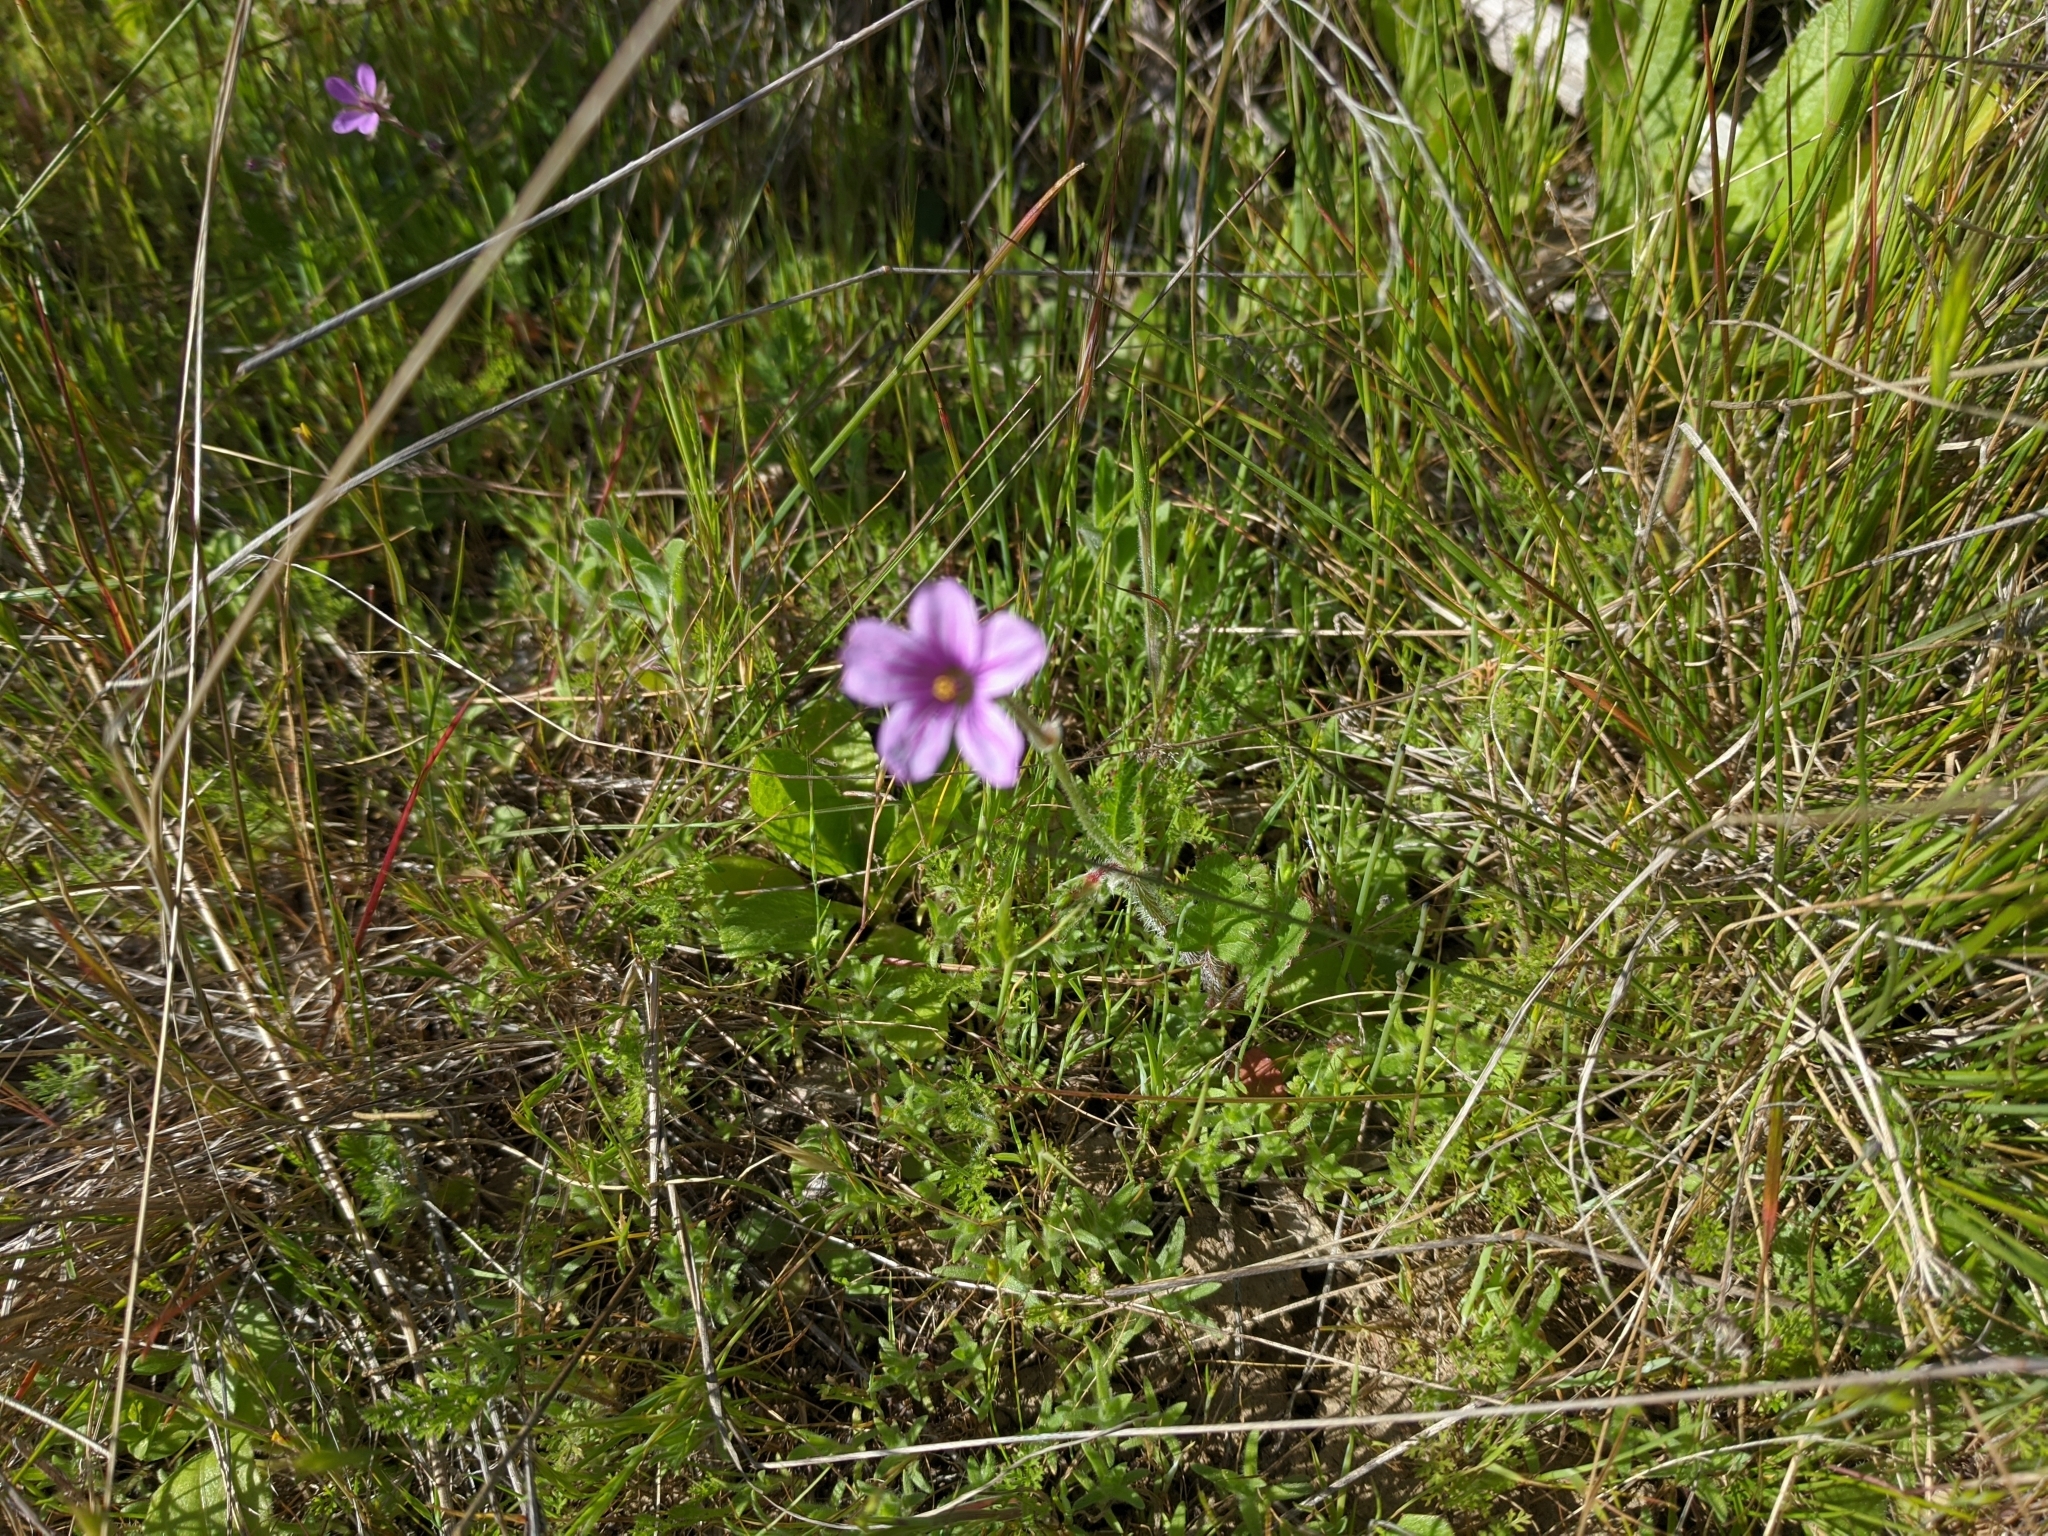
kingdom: Plantae
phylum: Tracheophyta
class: Magnoliopsida
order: Geraniales
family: Geraniaceae
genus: Erodium
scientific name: Erodium botrys
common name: Mediterranean stork's-bill
